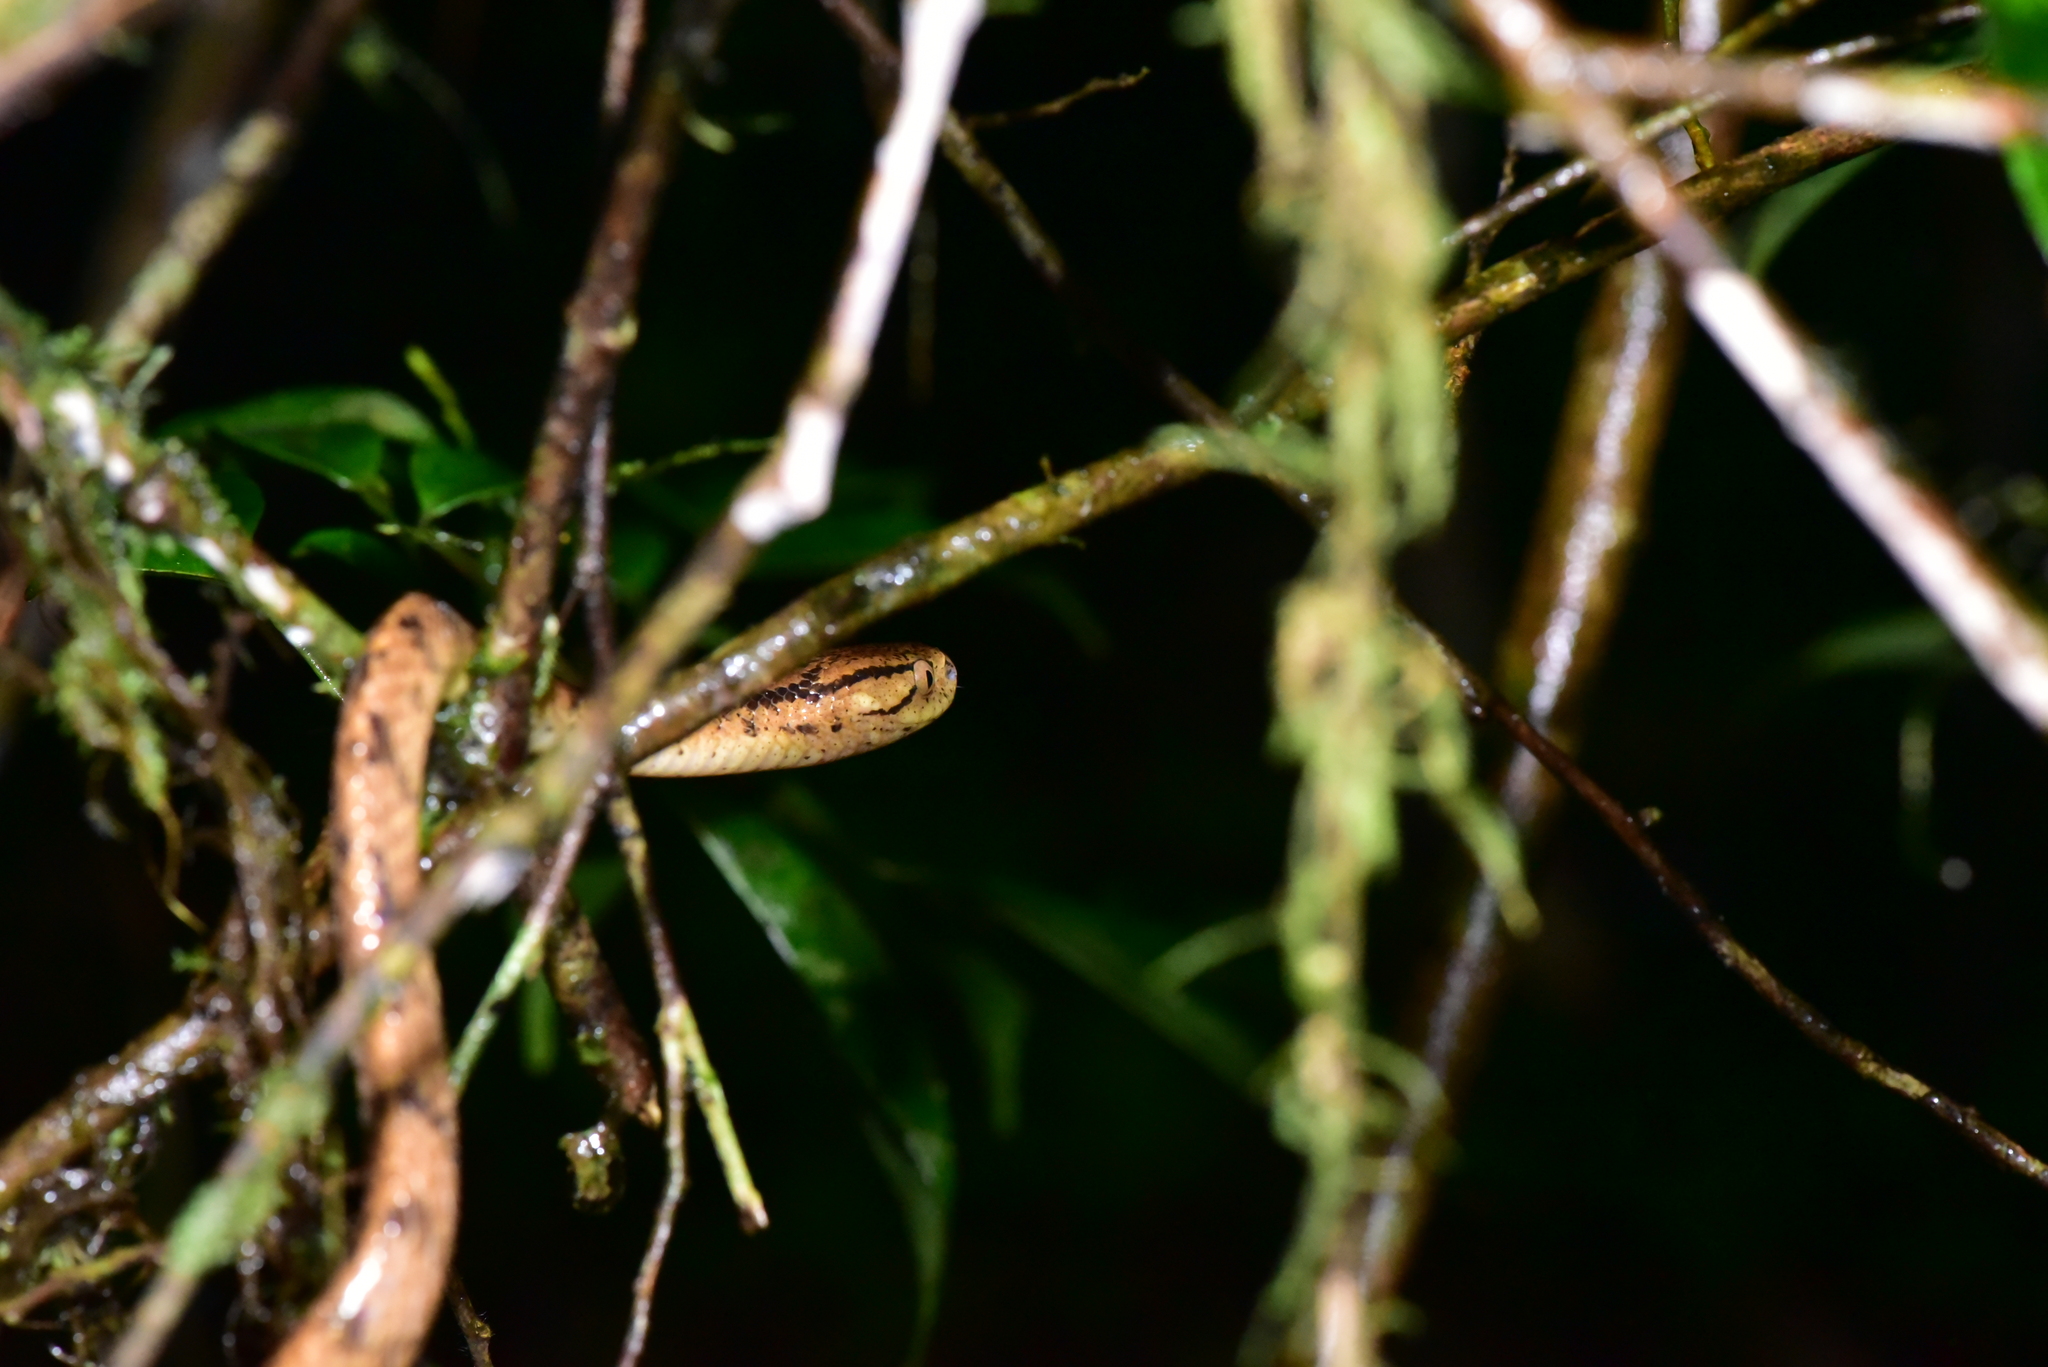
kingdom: Animalia
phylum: Chordata
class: Squamata
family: Pareidae
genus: Pareas
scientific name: Pareas atayal
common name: Atayal slug-eating snake
